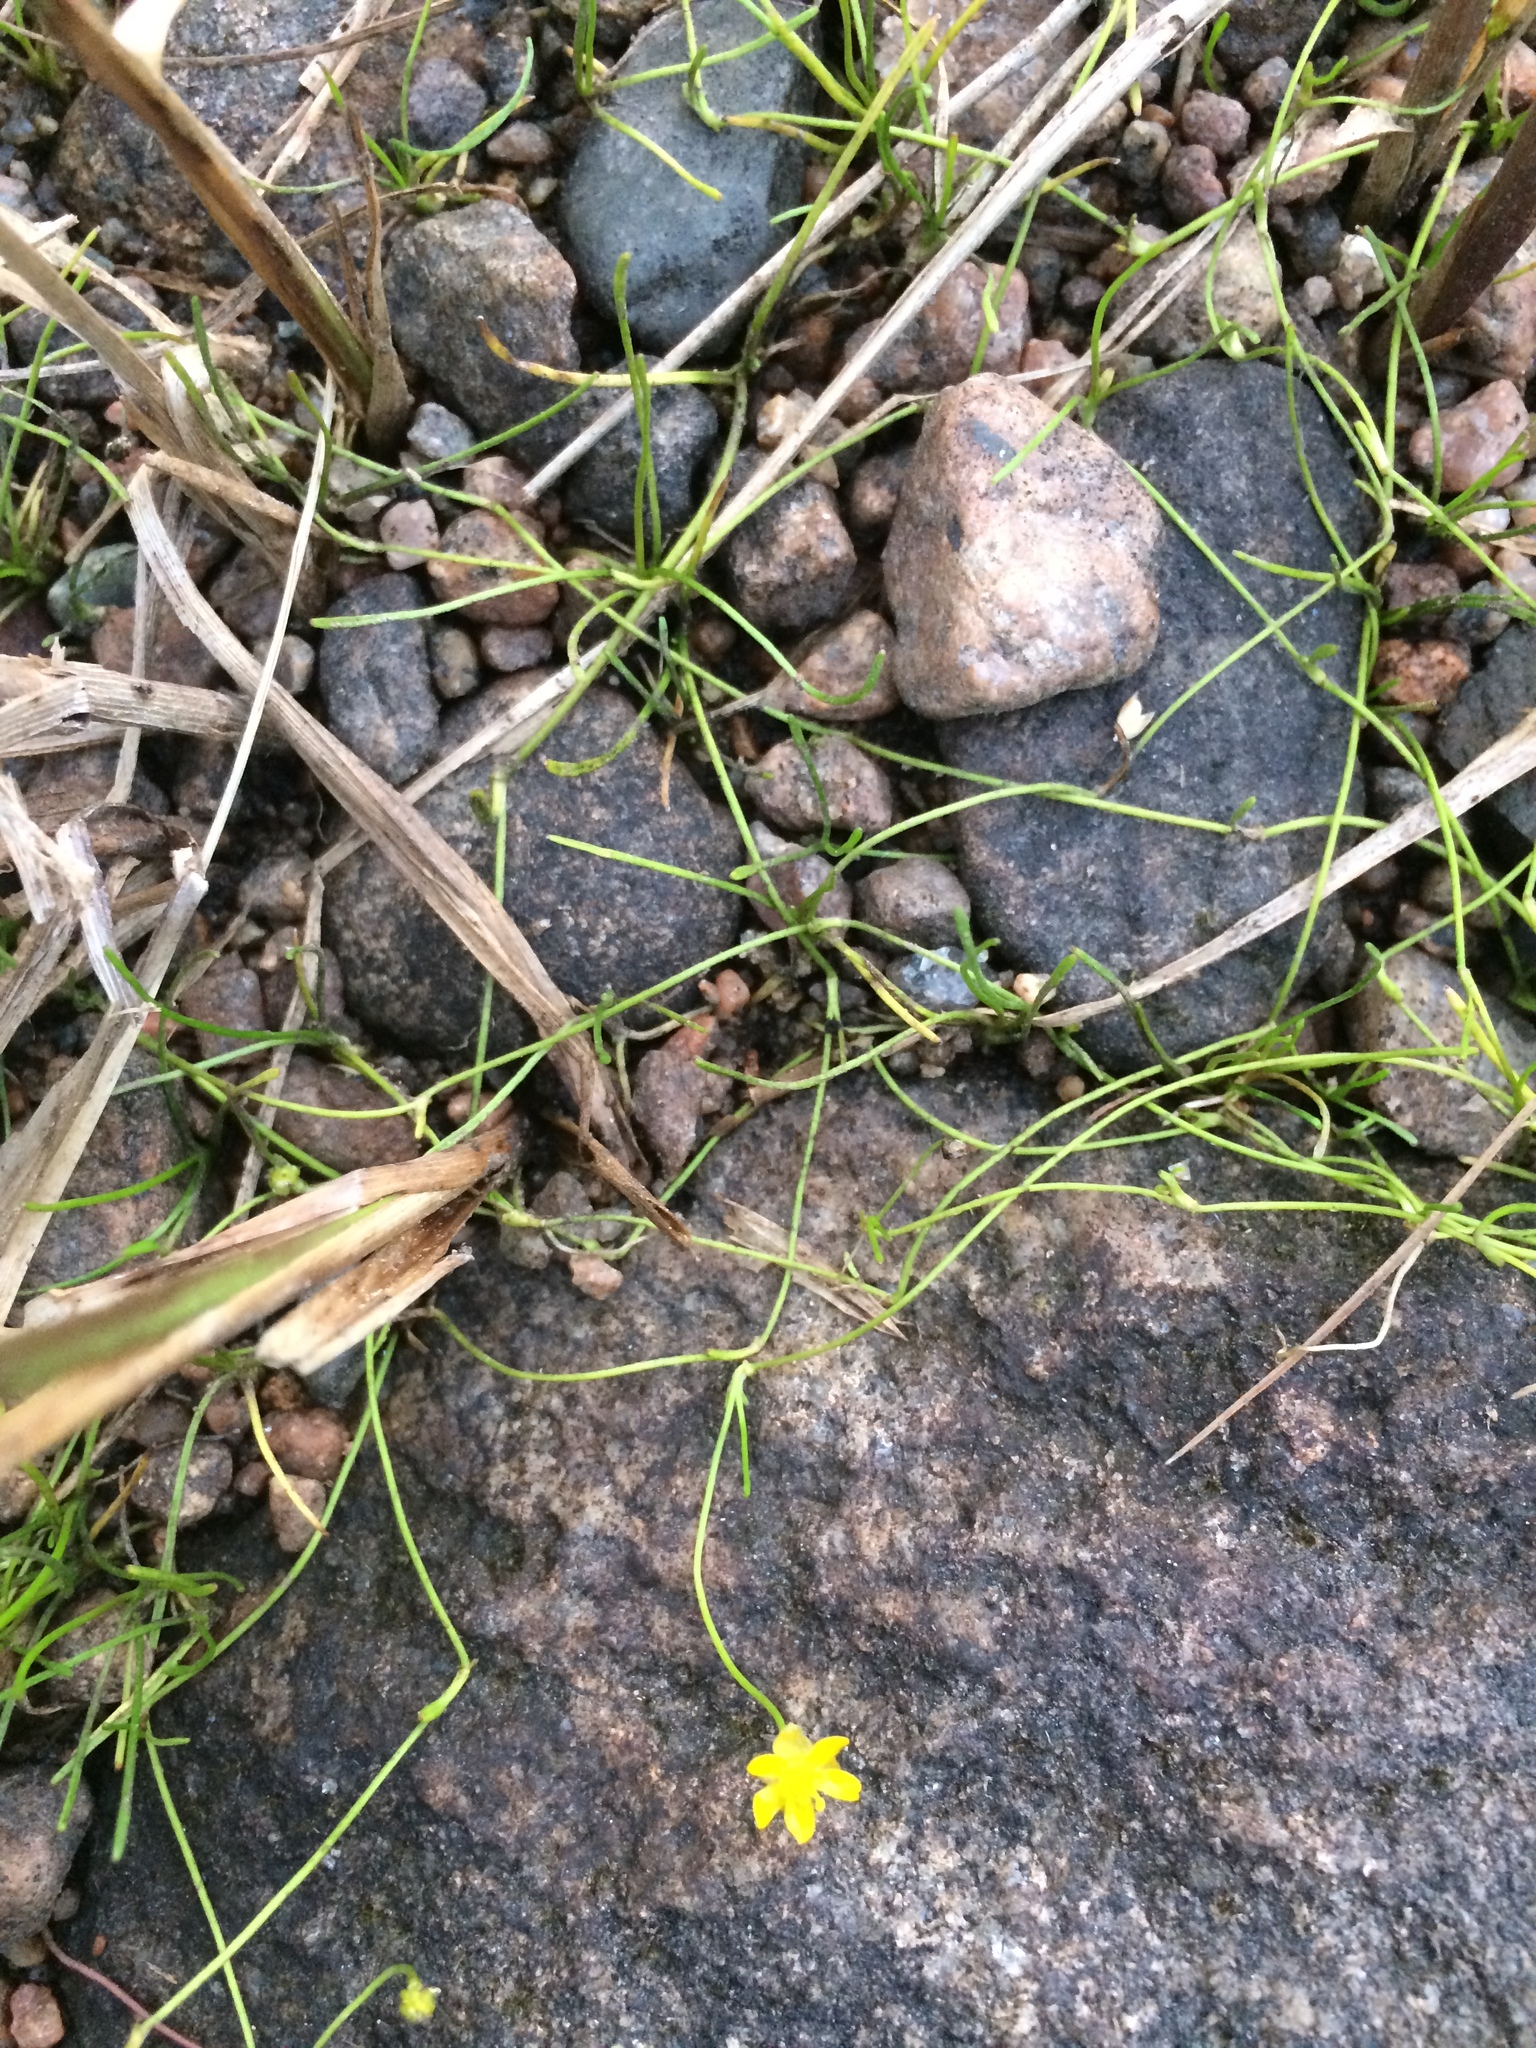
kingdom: Plantae
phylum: Tracheophyta
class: Magnoliopsida
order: Ranunculales
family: Ranunculaceae
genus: Ranunculus
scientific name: Ranunculus reptans
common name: Creeping spearwort
